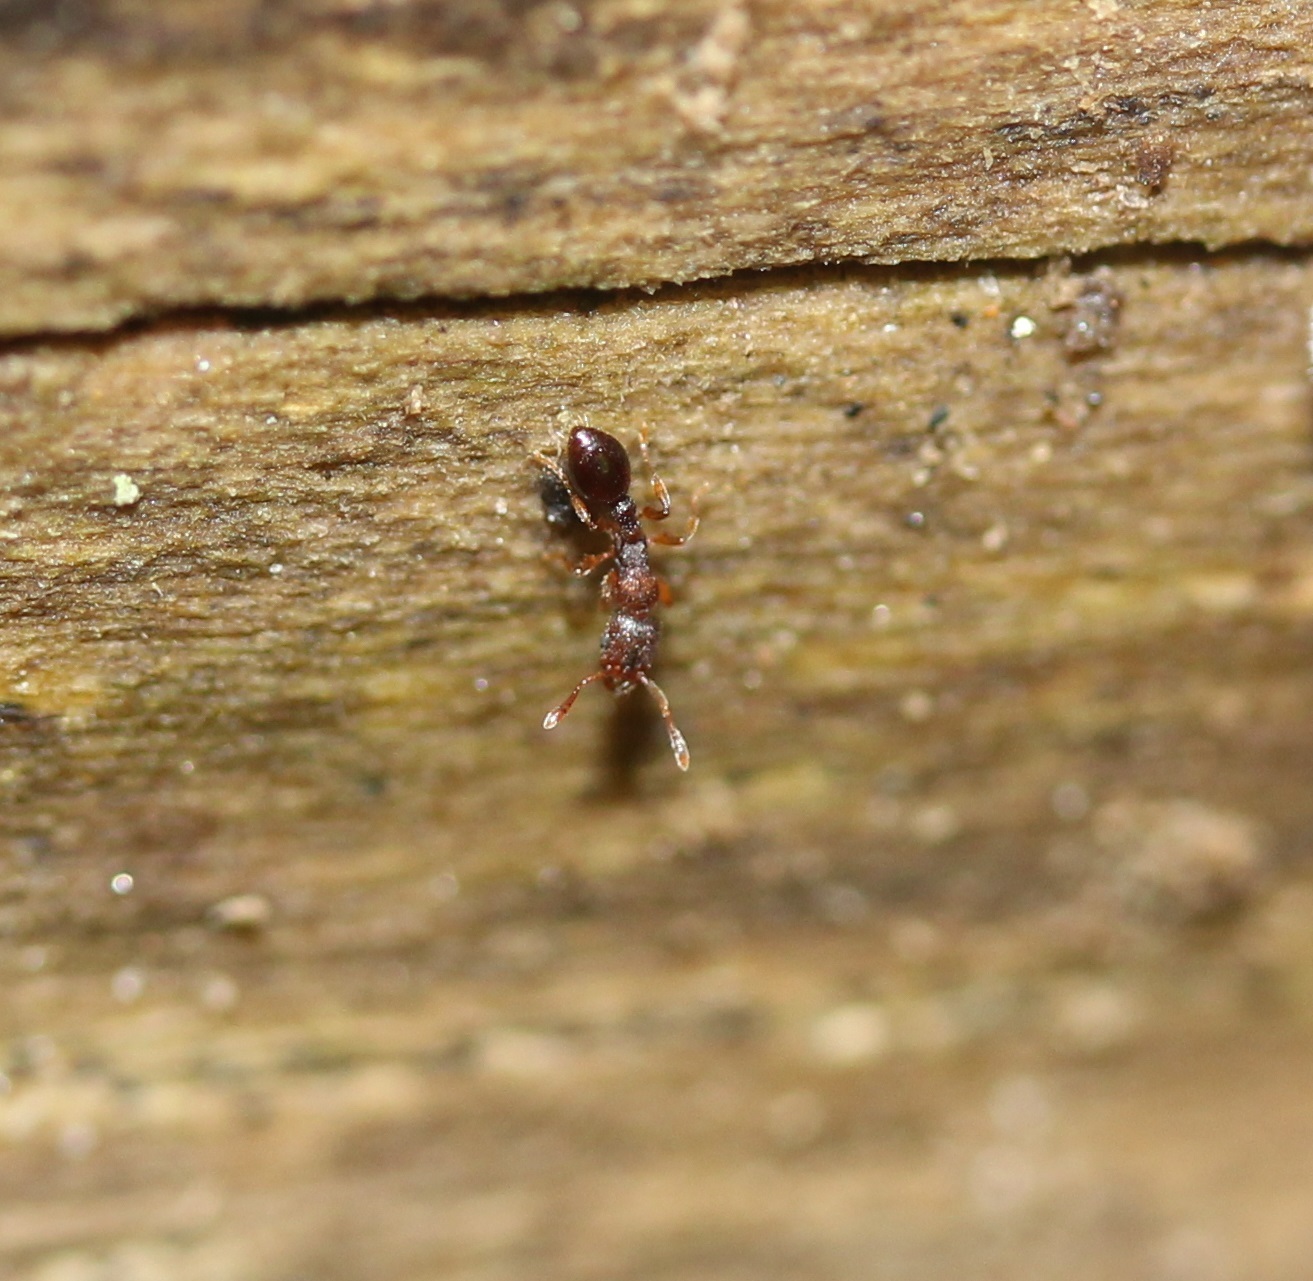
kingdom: Animalia
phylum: Arthropoda
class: Insecta
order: Hymenoptera
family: Formicidae
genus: Vollenhovia
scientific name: Vollenhovia emeryi
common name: Ant
